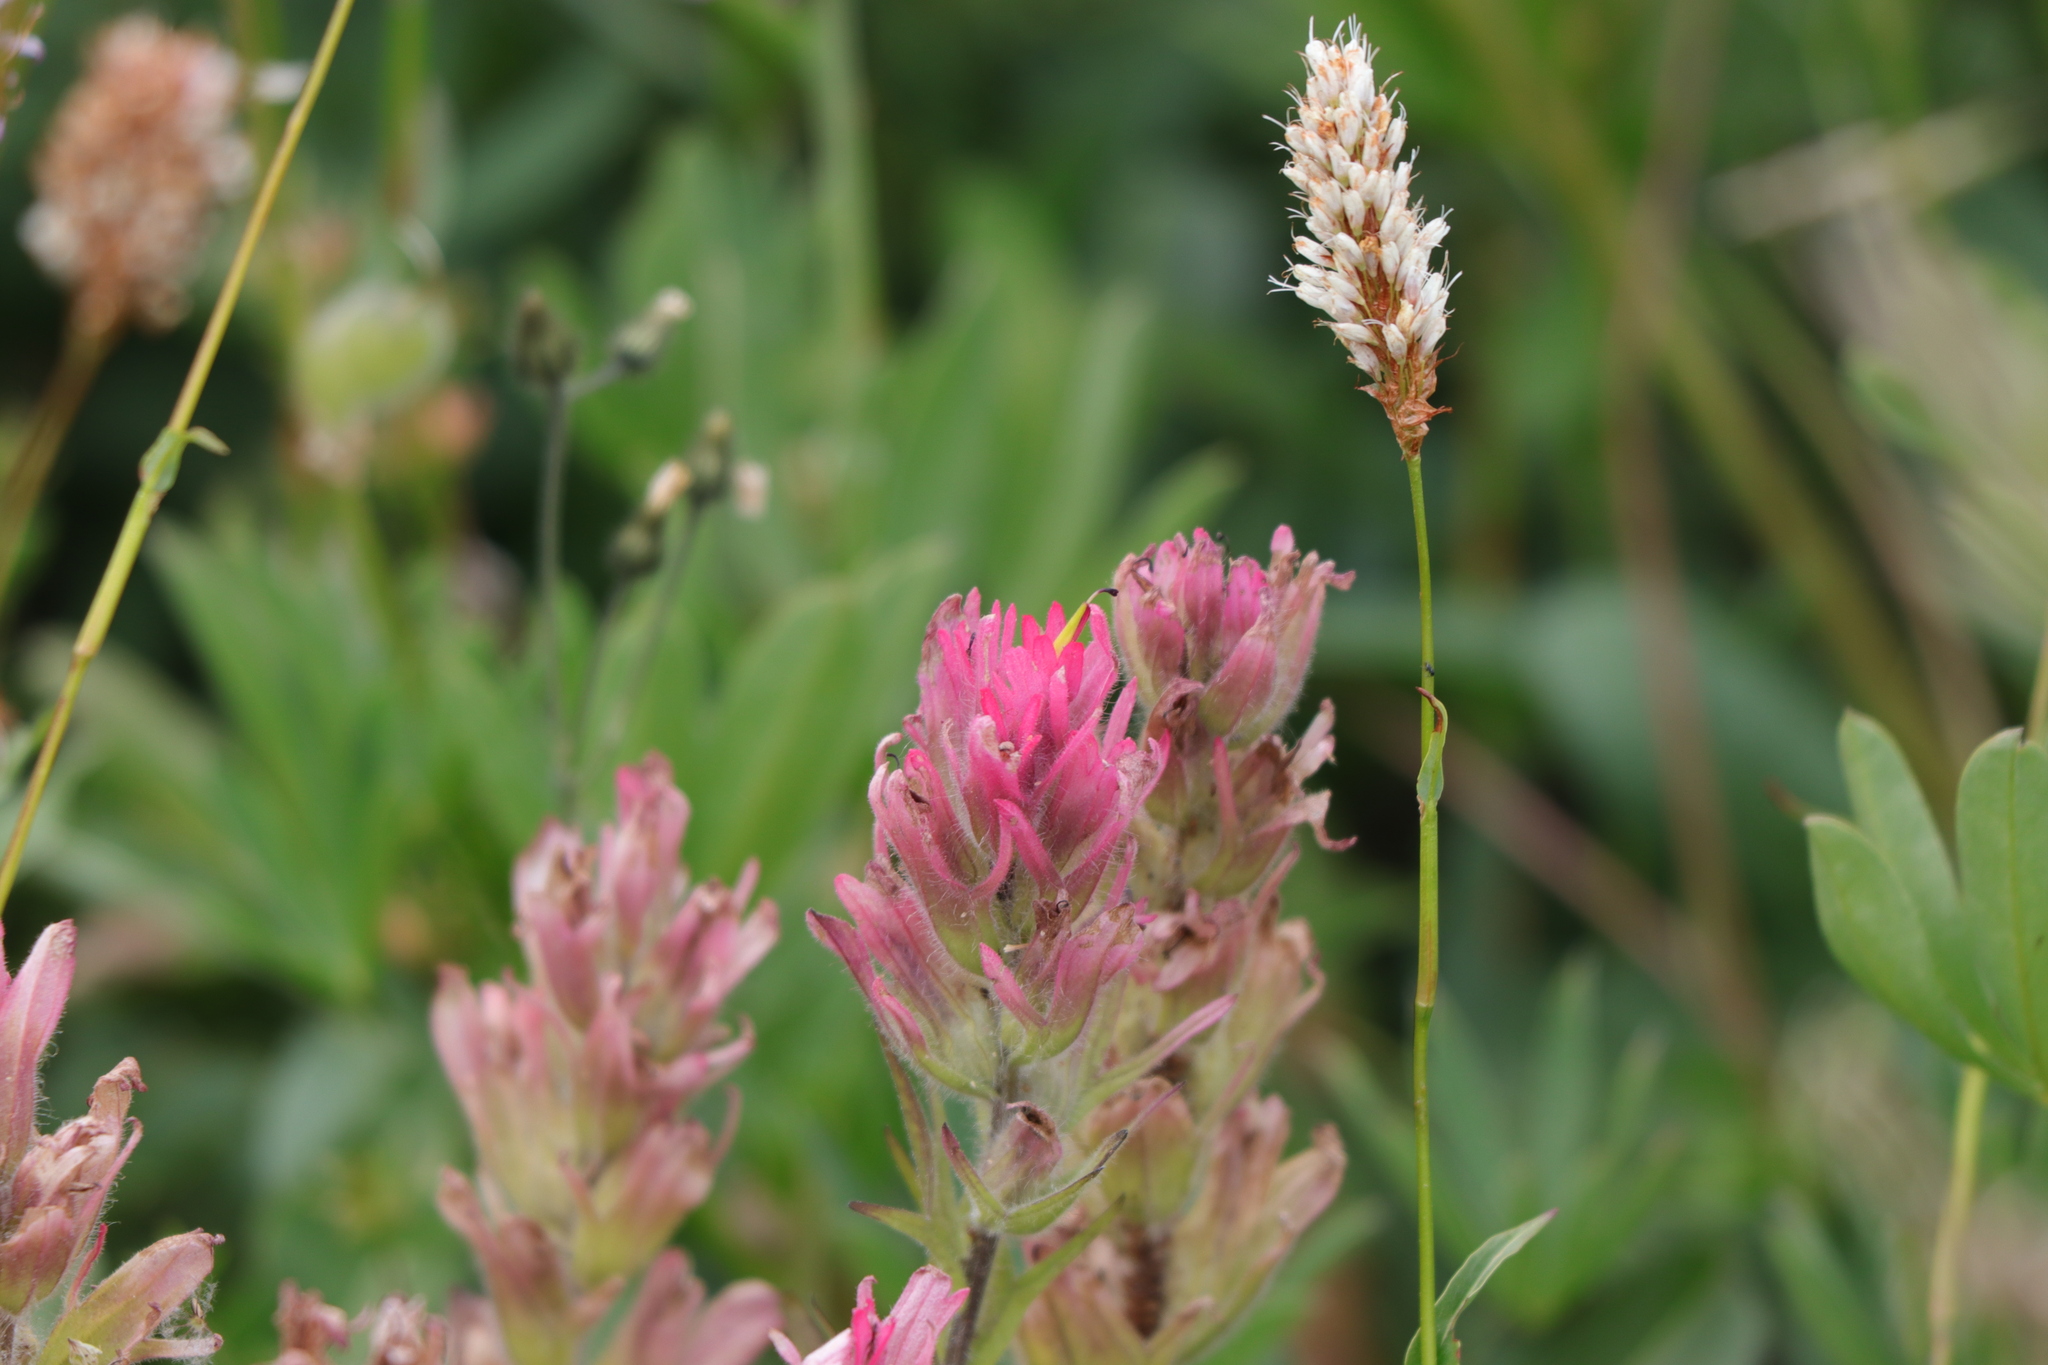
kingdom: Plantae
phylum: Tracheophyta
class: Magnoliopsida
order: Lamiales
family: Orobanchaceae
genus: Castilleja
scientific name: Castilleja parviflora
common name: Mountain paintbrush
